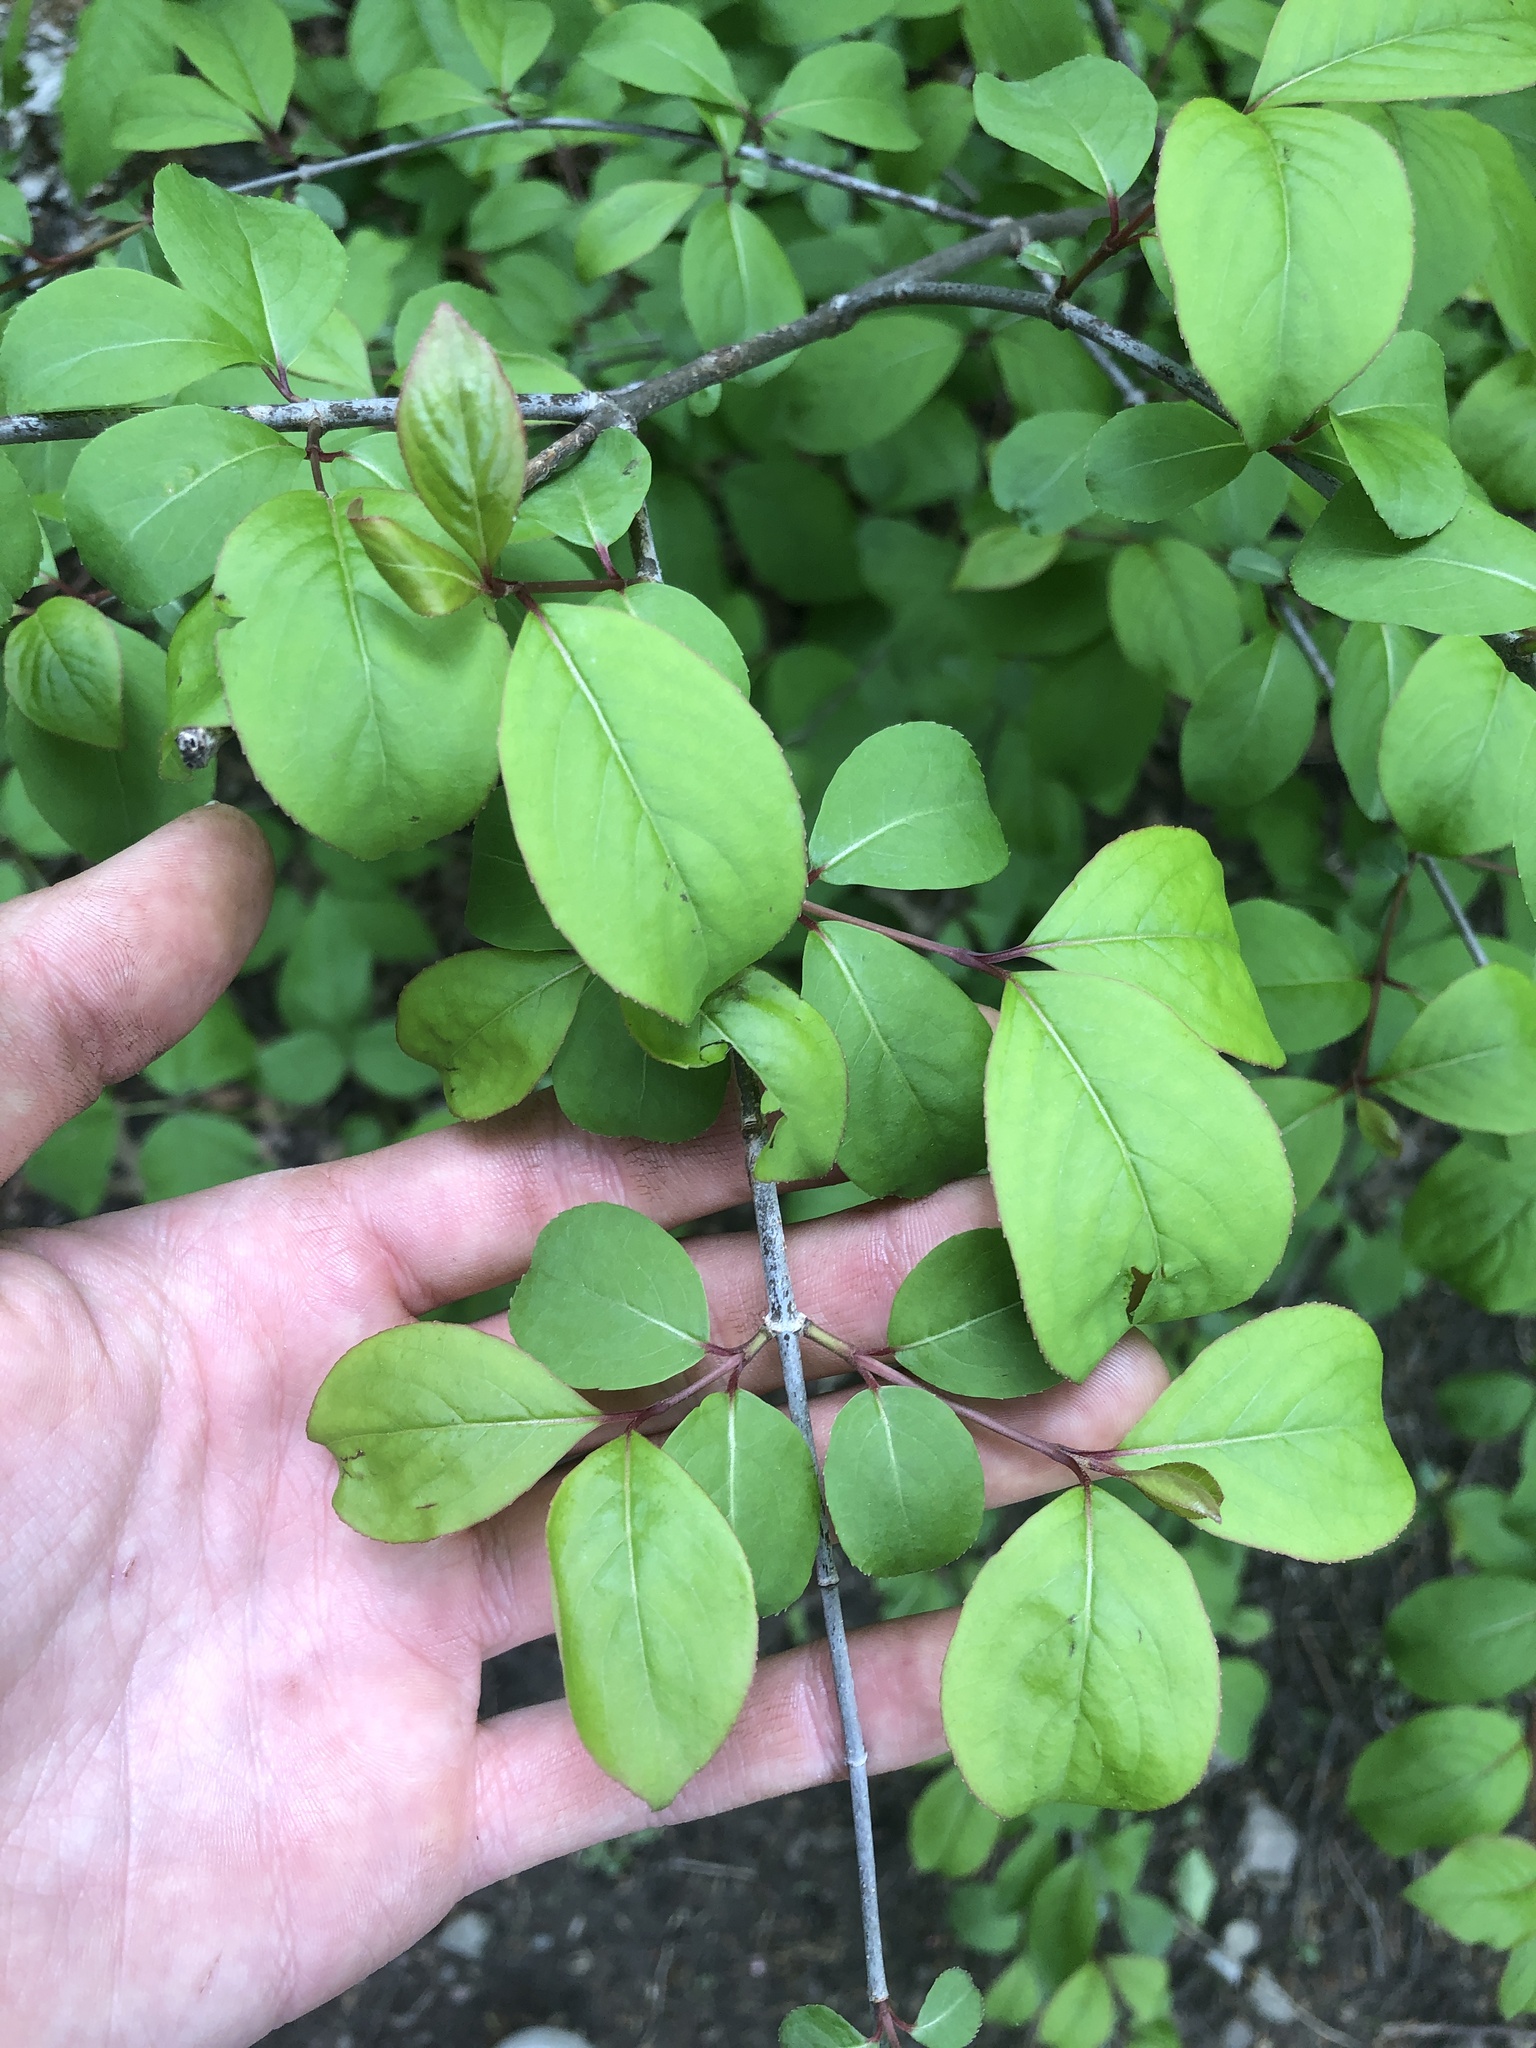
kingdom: Plantae
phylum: Tracheophyta
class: Magnoliopsida
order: Dipsacales
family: Viburnaceae
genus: Viburnum
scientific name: Viburnum prunifolium
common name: Black haw
